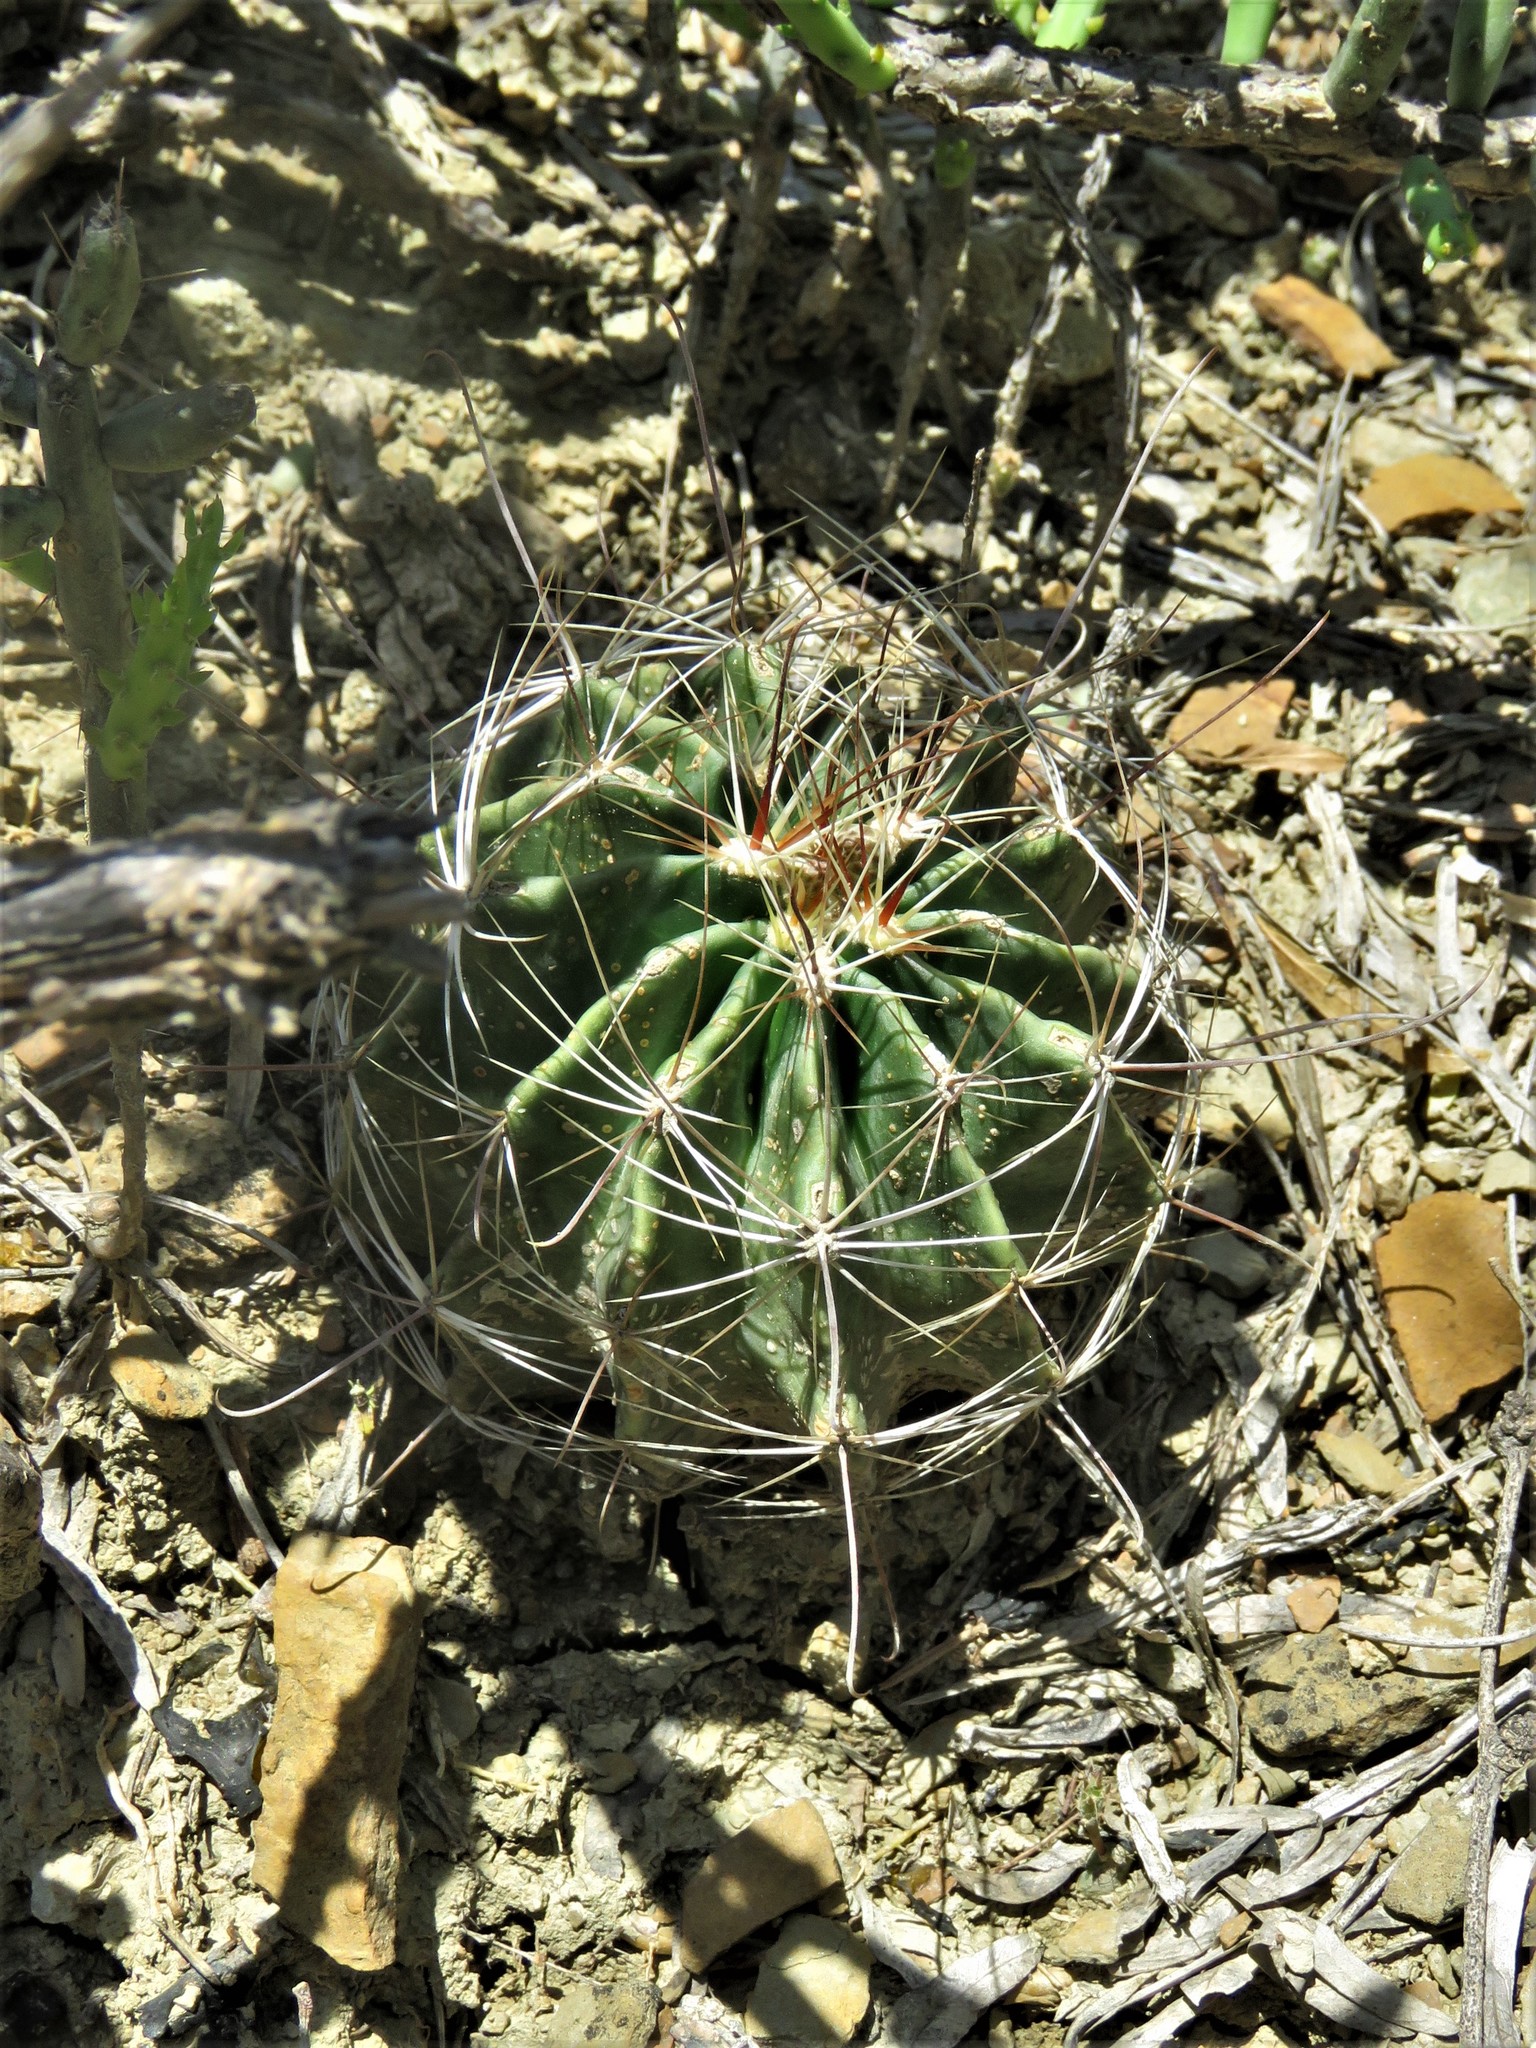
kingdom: Plantae
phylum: Tracheophyta
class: Magnoliopsida
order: Caryophyllales
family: Cactaceae
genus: Thelocactus
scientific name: Thelocactus setispinus
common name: Miniature barrel cactus
